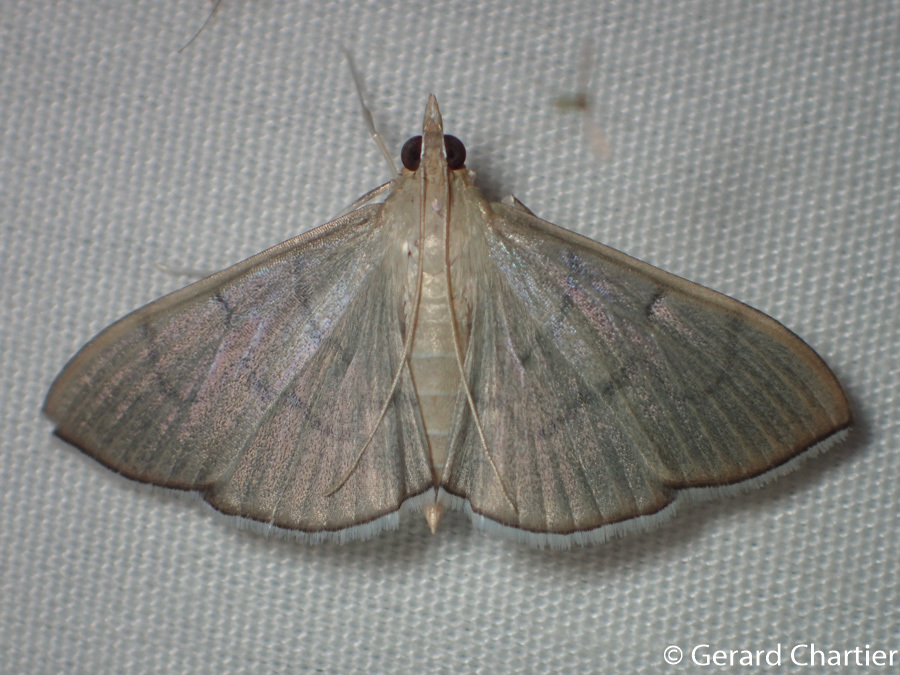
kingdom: Animalia
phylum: Arthropoda
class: Insecta
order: Lepidoptera
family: Crambidae
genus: Lamprophaia
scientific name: Lamprophaia ablactalis
